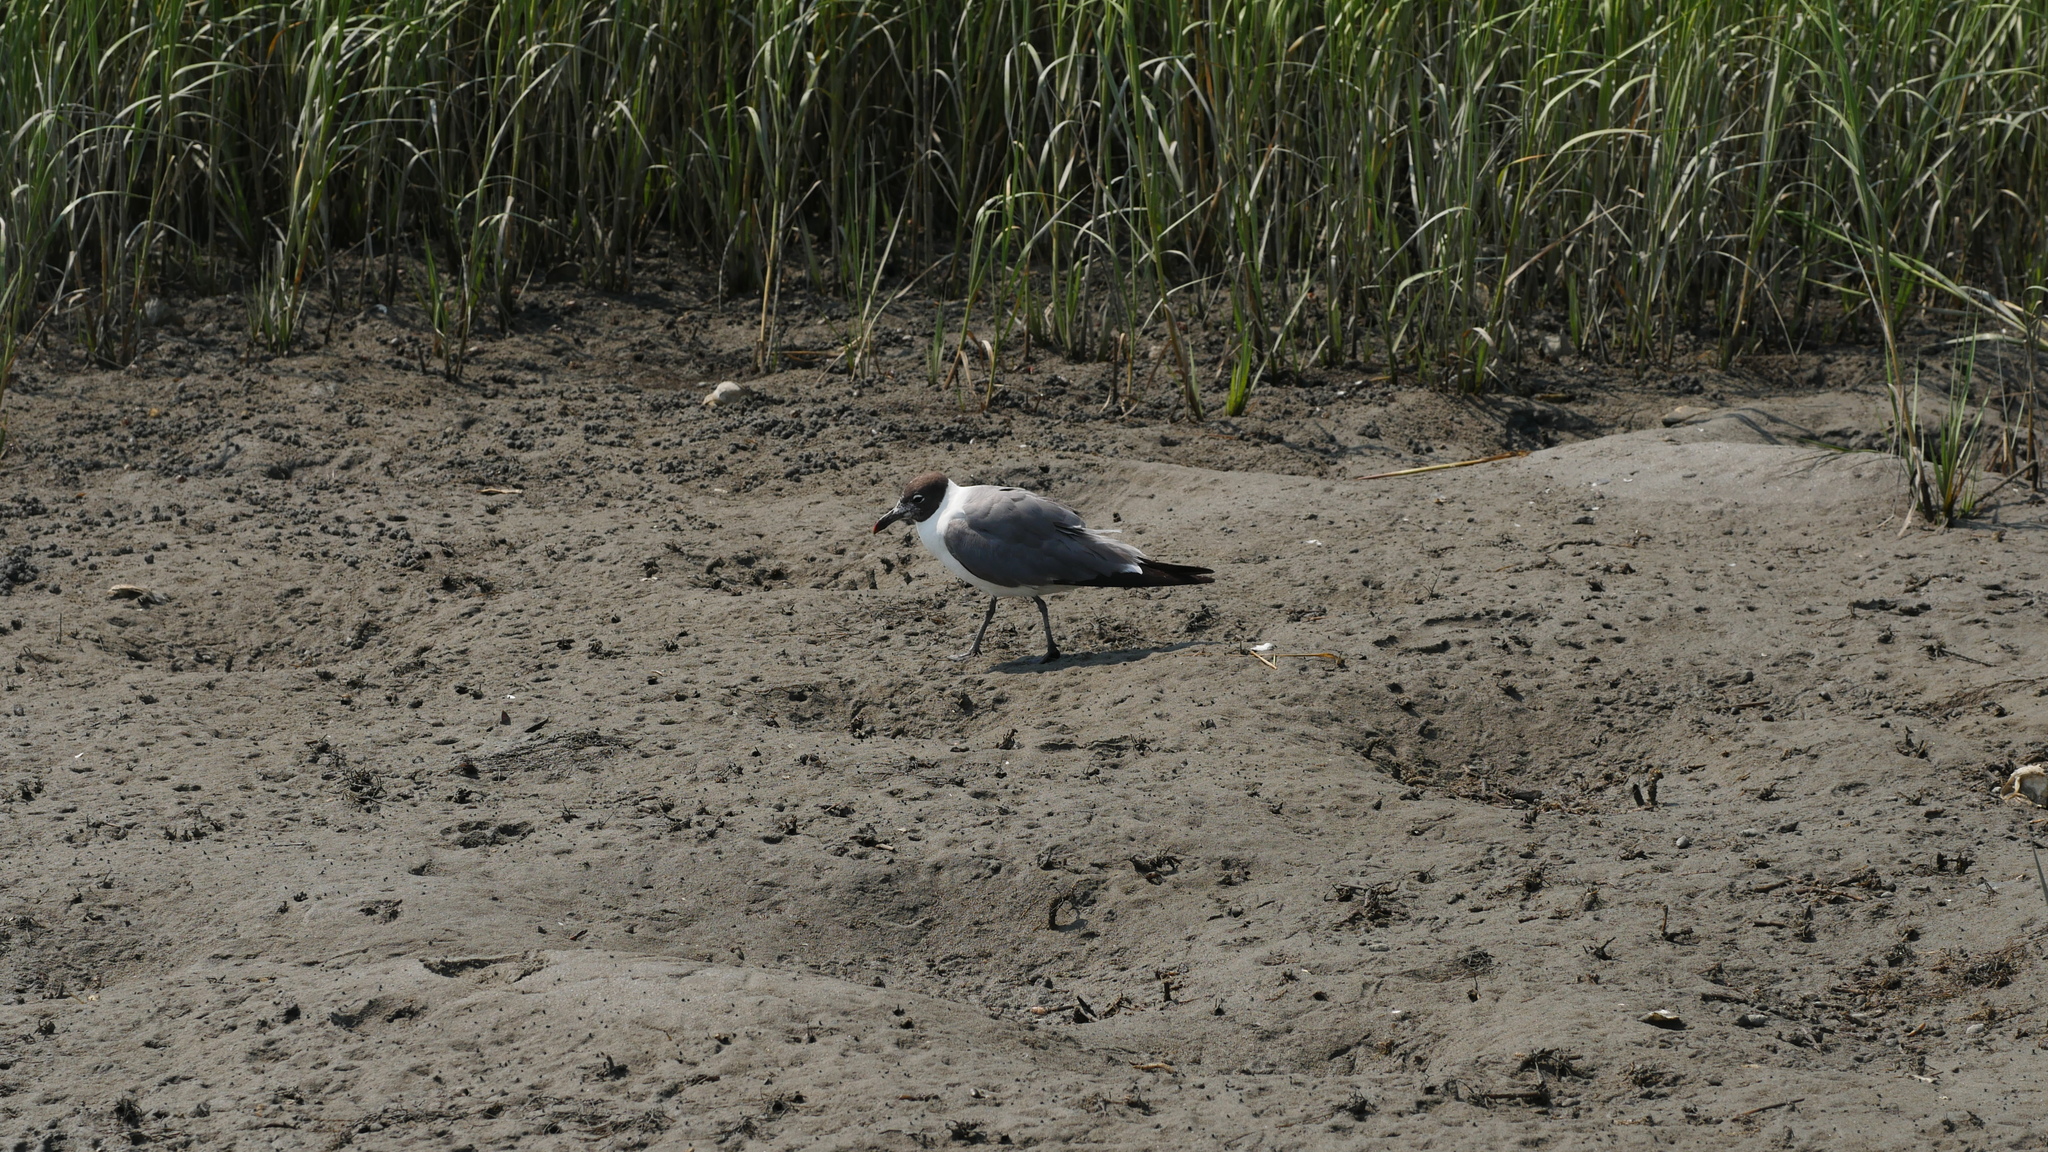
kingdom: Animalia
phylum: Chordata
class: Aves
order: Charadriiformes
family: Laridae
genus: Leucophaeus
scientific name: Leucophaeus atricilla
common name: Laughing gull
